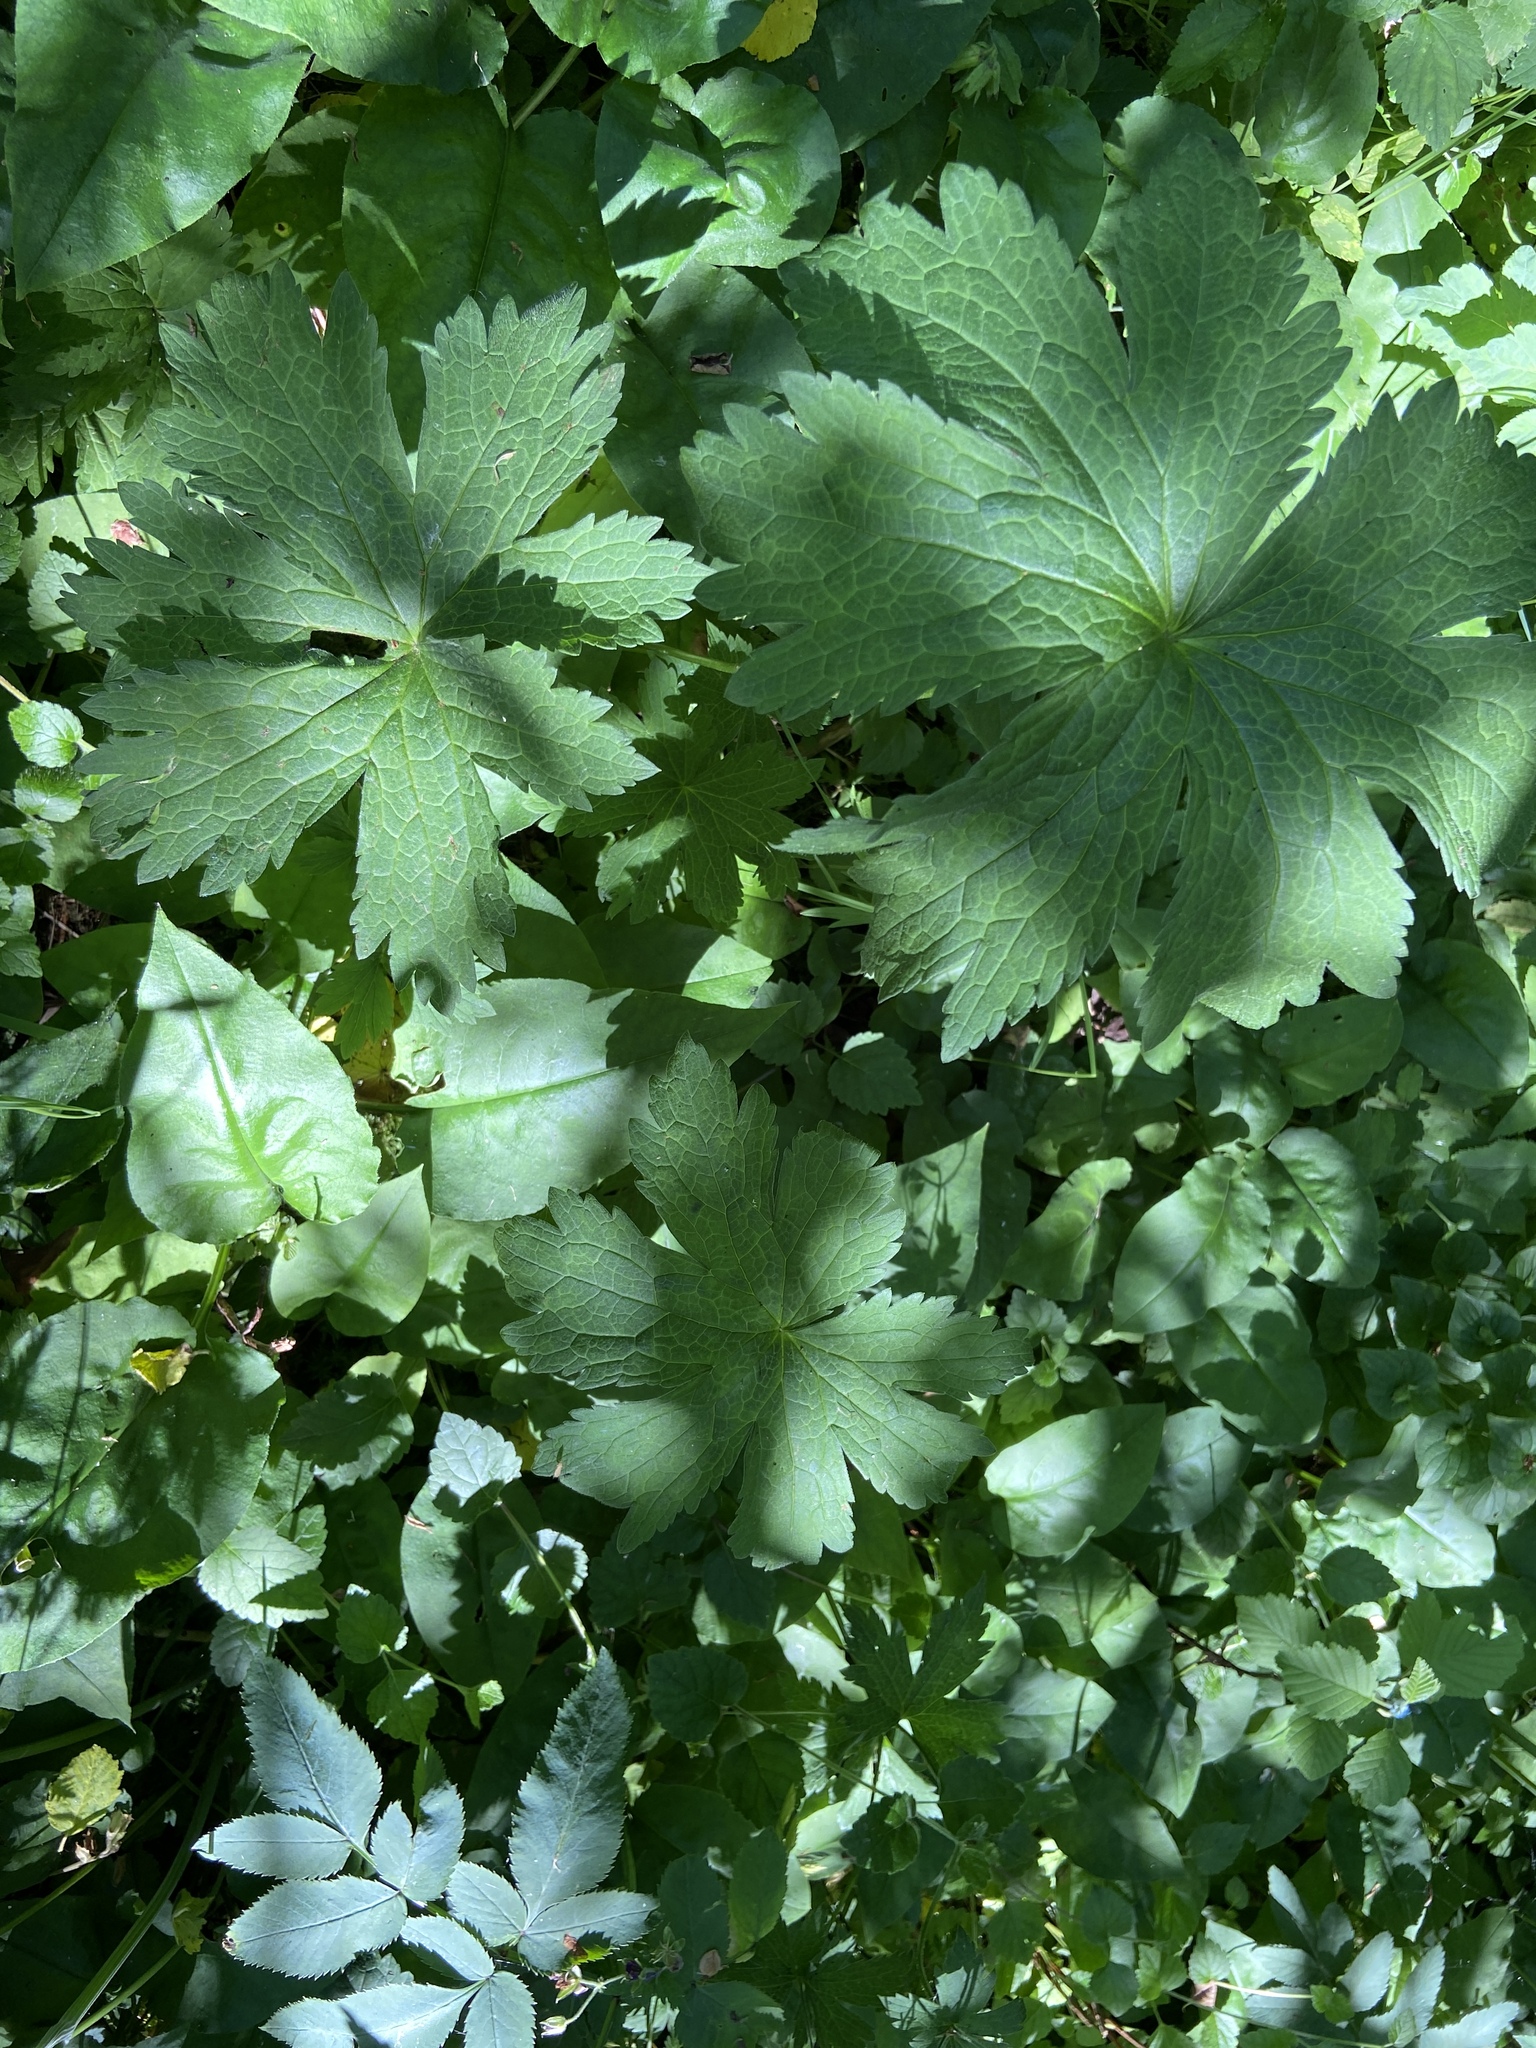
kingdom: Plantae
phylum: Tracheophyta
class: Magnoliopsida
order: Geraniales
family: Geraniaceae
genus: Geranium
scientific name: Geranium sylvaticum
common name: Wood crane's-bill
